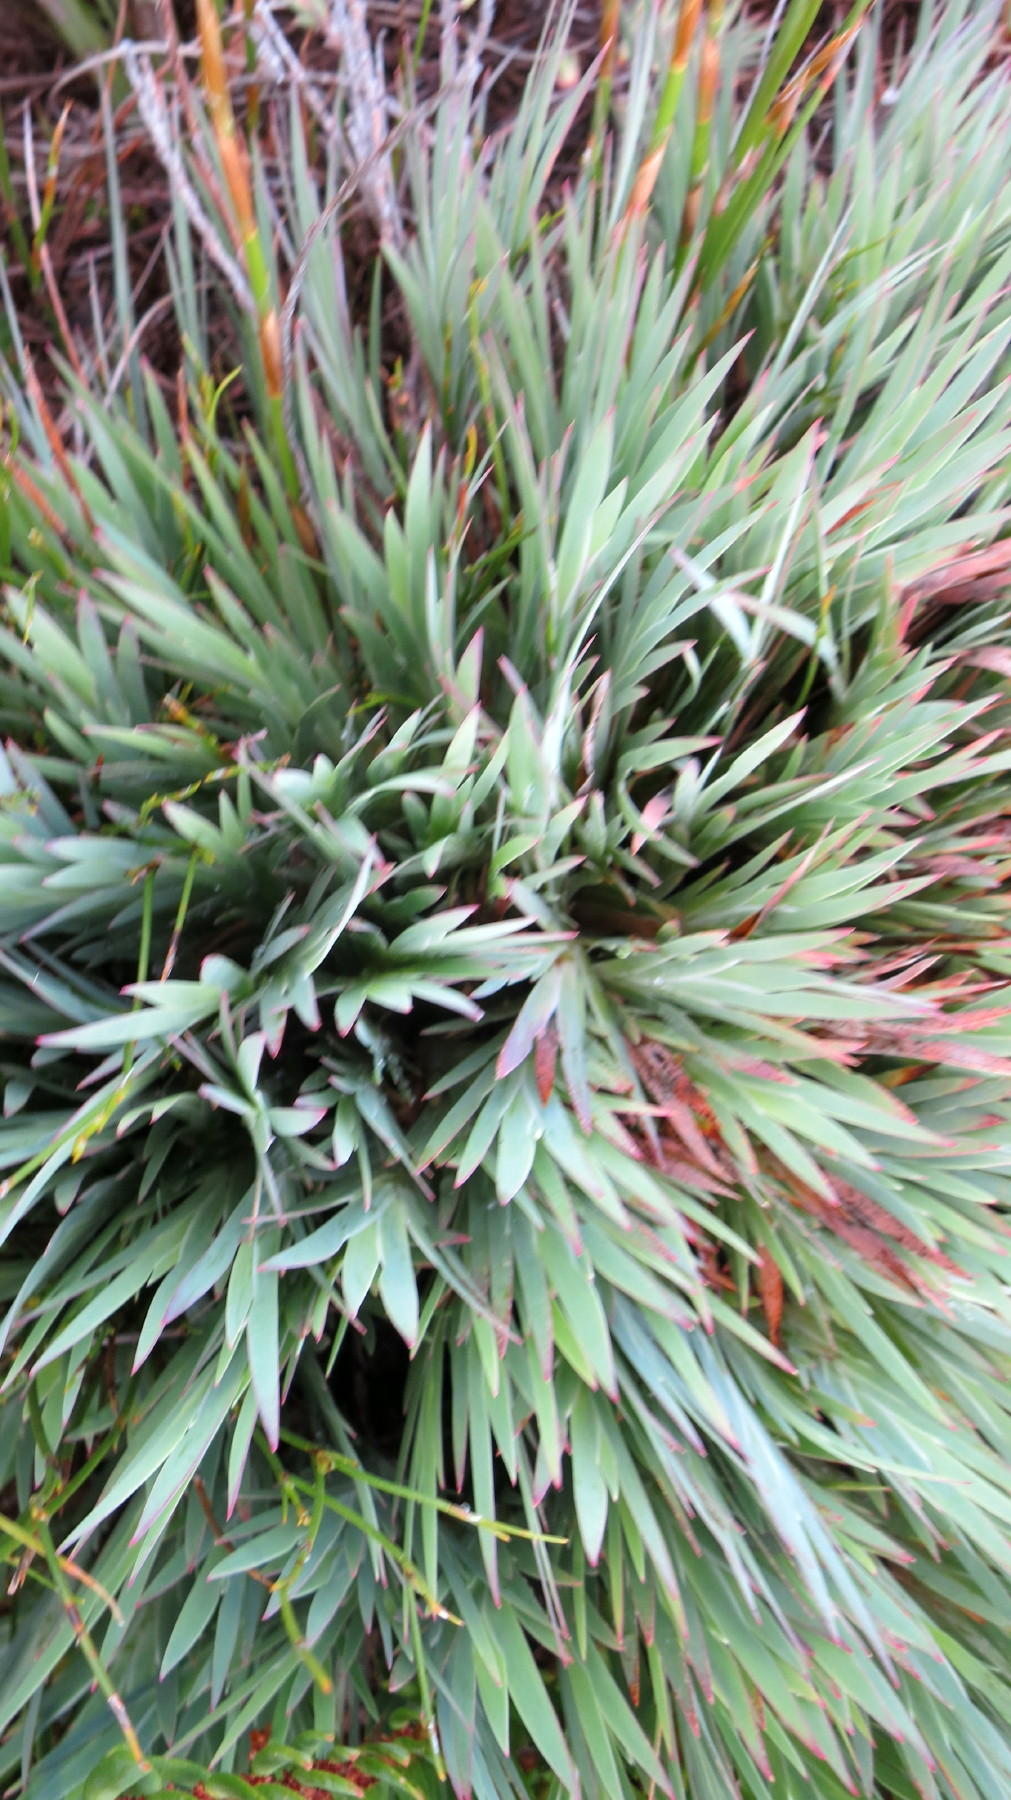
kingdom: Plantae
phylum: Tracheophyta
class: Liliopsida
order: Asparagales
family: Iridaceae
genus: Nivenia
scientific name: Nivenia fruticosa
